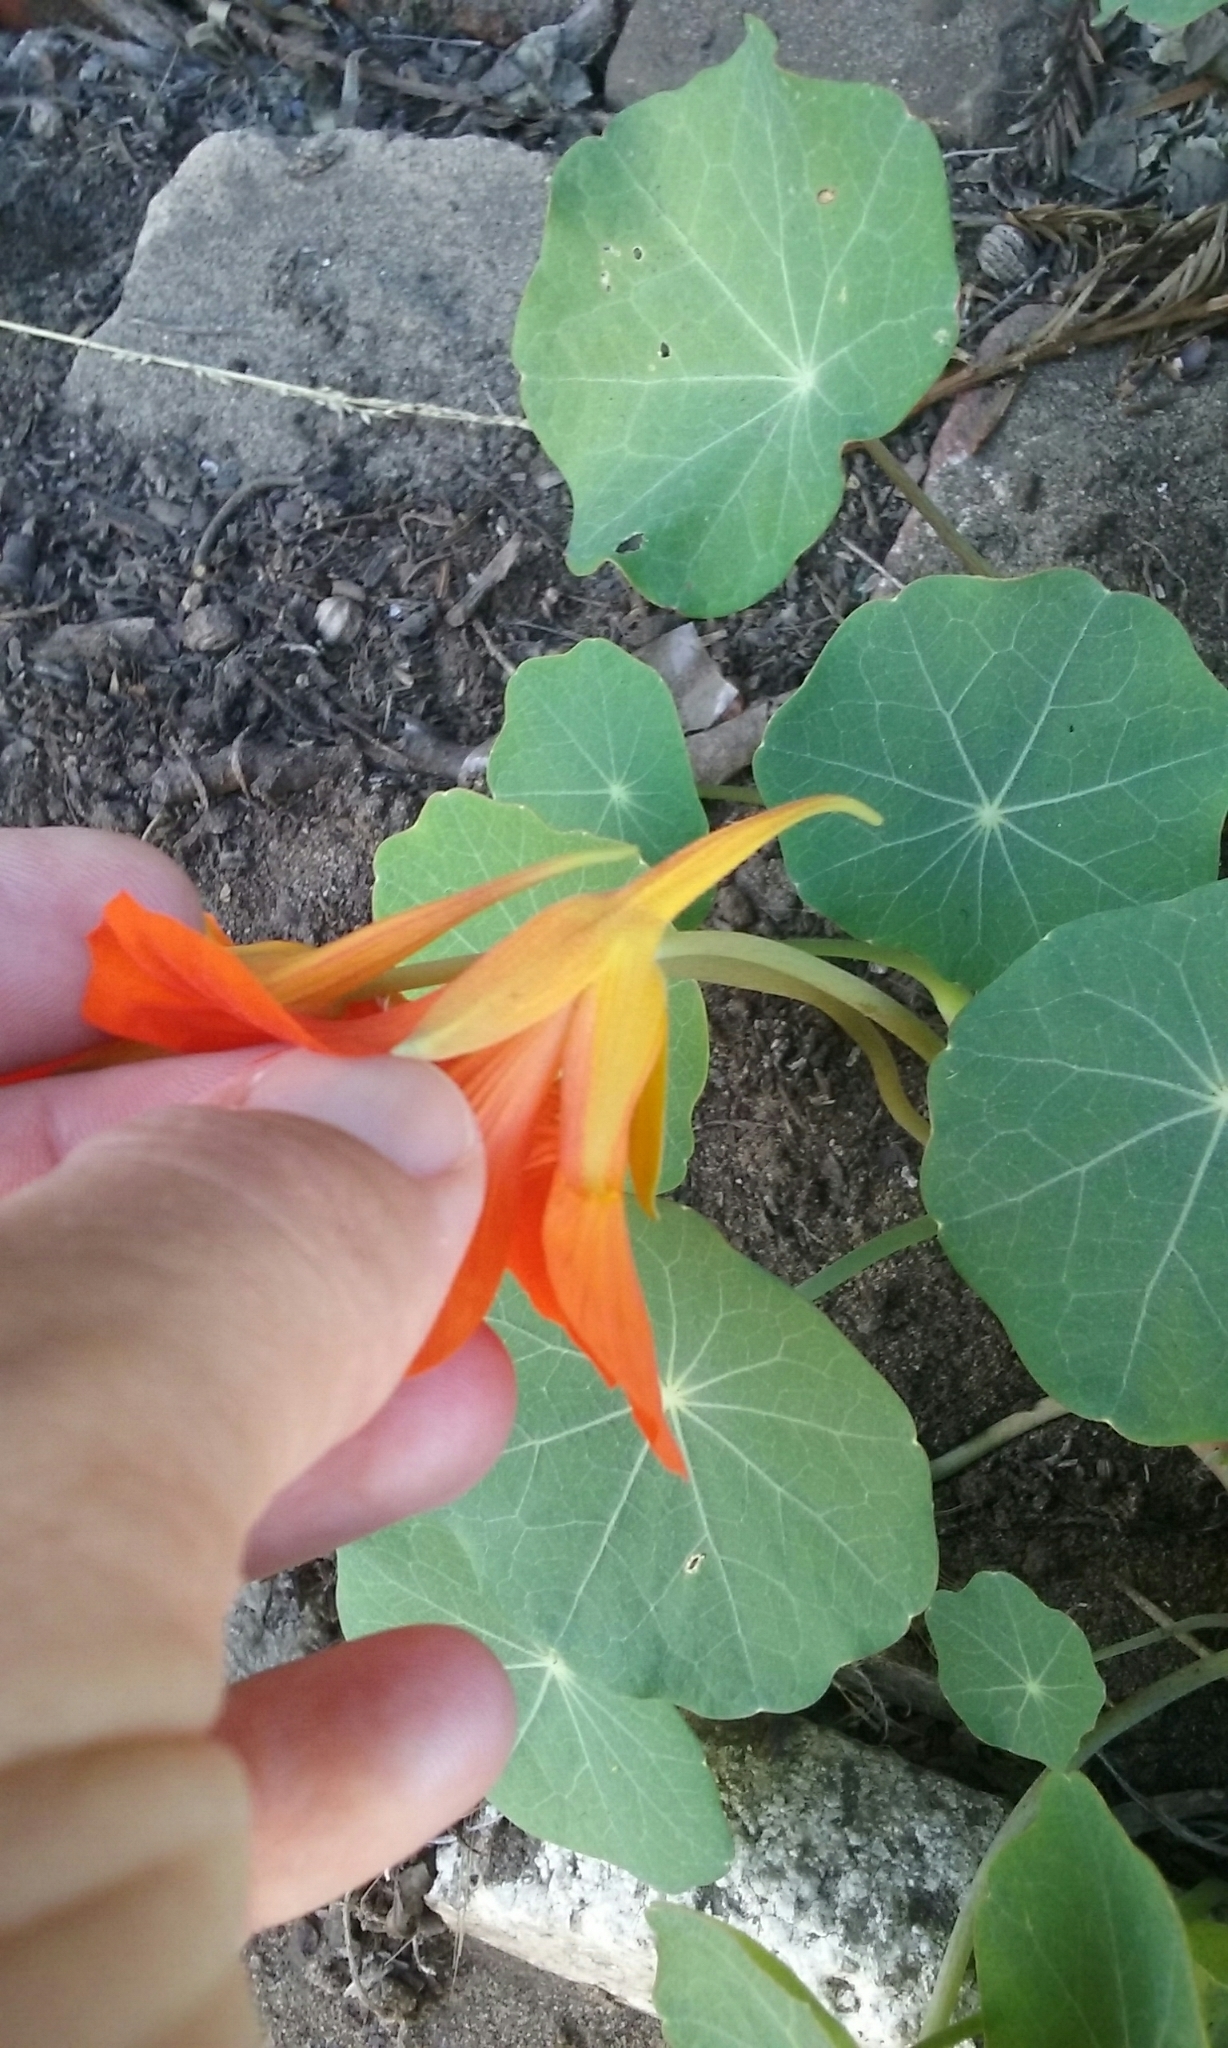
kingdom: Plantae
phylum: Tracheophyta
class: Magnoliopsida
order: Brassicales
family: Tropaeolaceae
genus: Tropaeolum
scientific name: Tropaeolum majus
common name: Nasturtium
